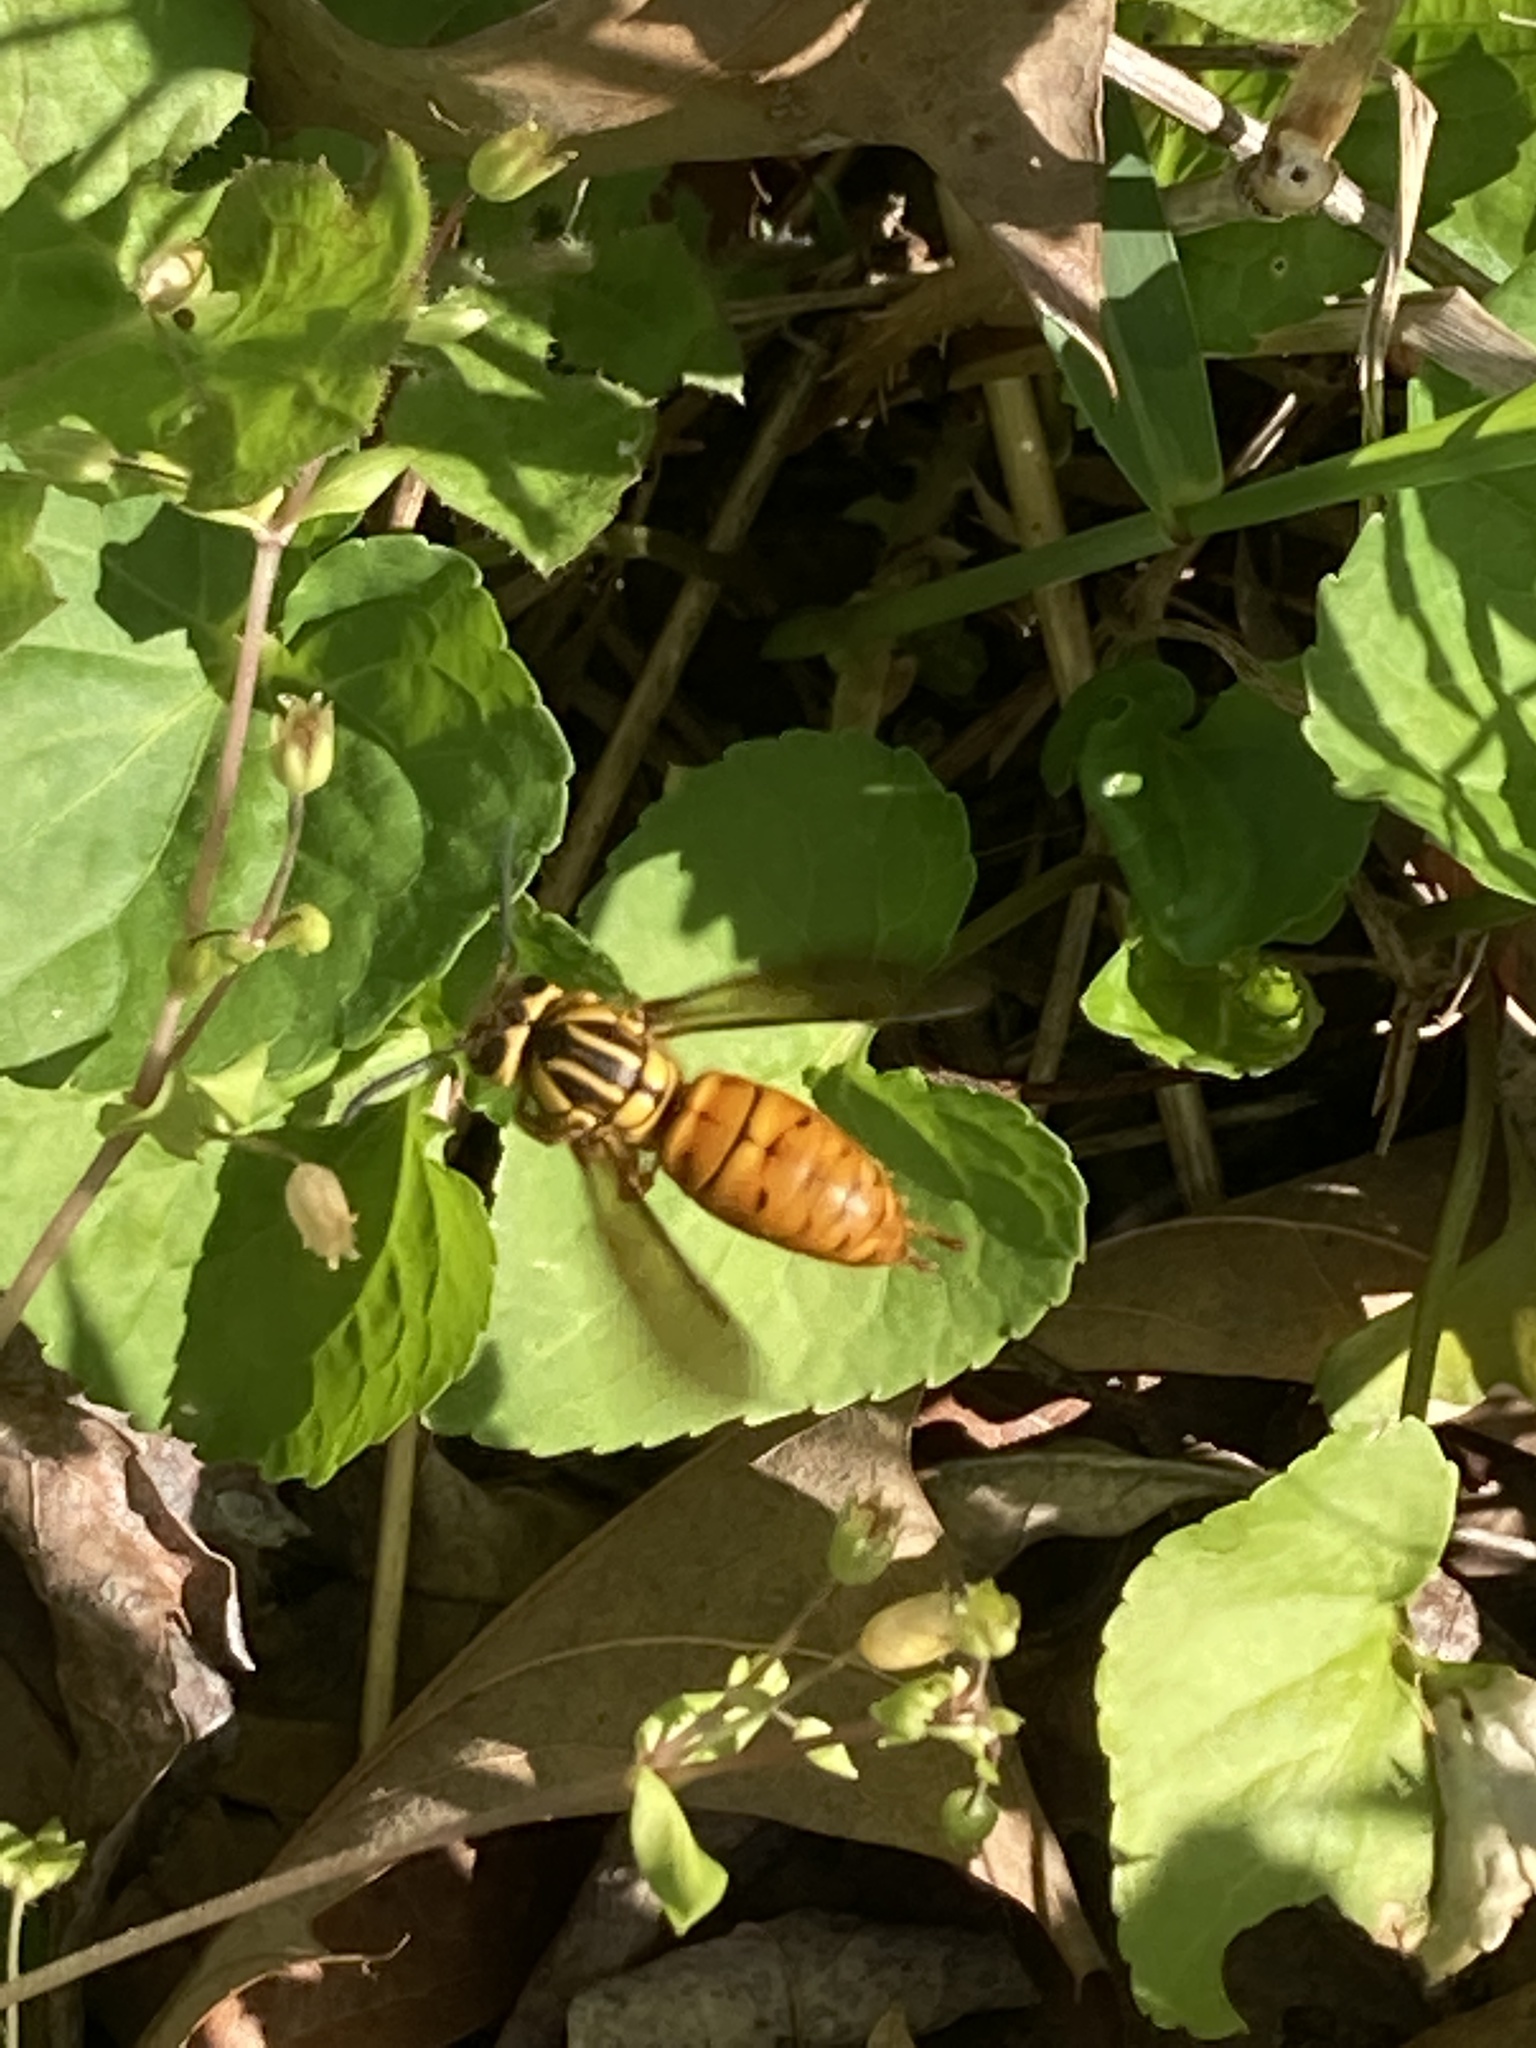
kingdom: Animalia
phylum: Arthropoda
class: Insecta
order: Hymenoptera
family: Vespidae
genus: Vespula
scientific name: Vespula squamosa
